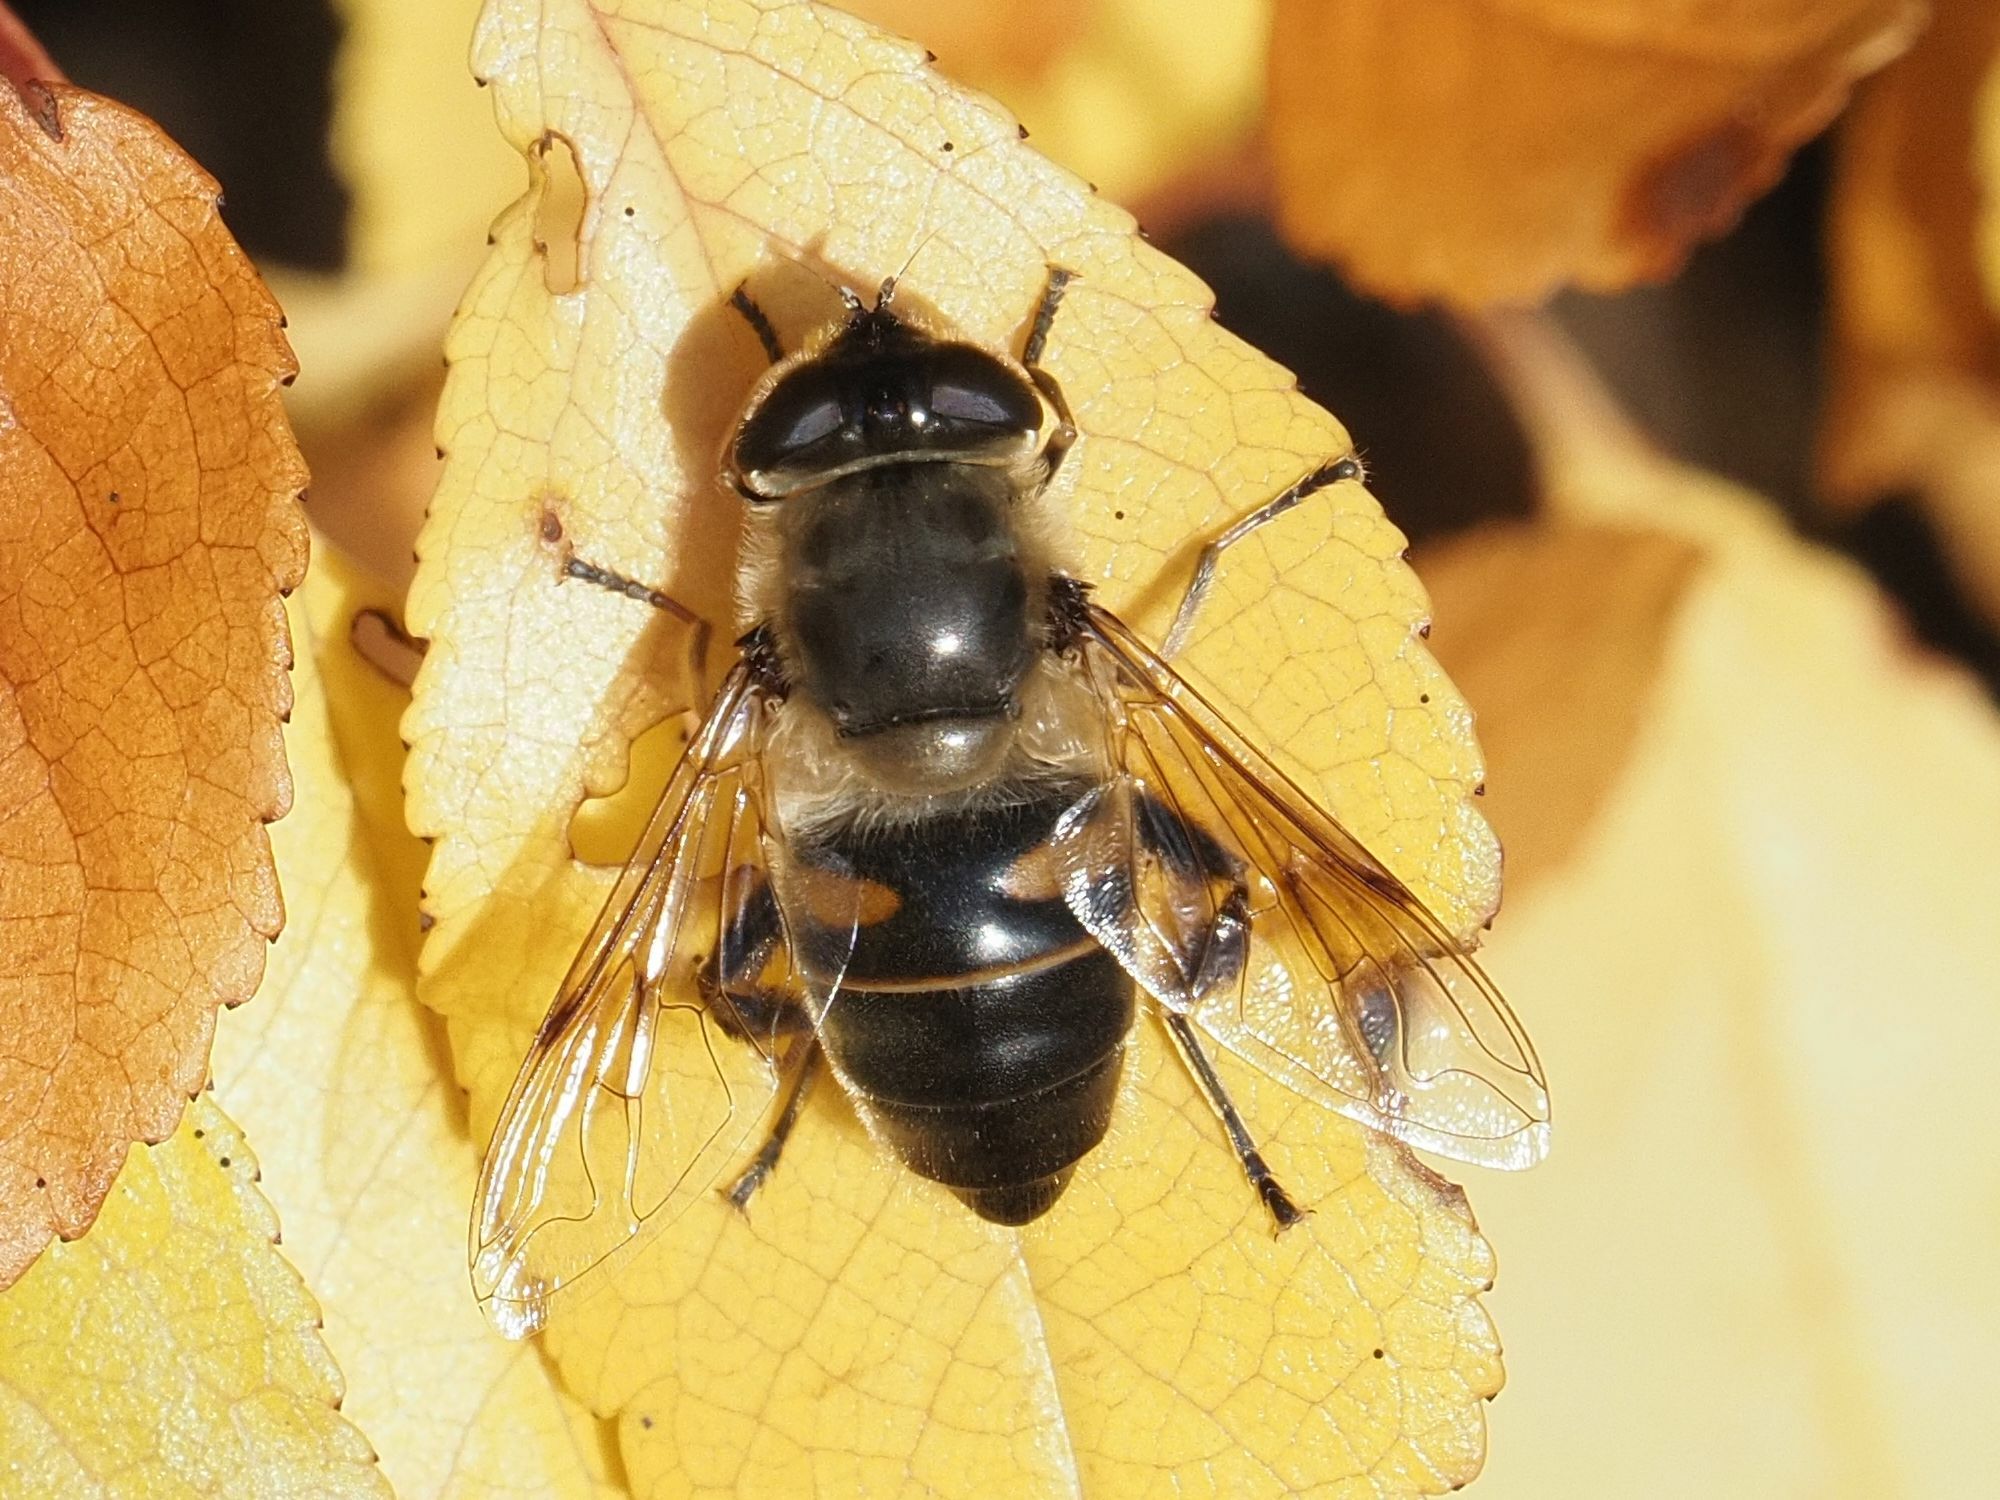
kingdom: Animalia
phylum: Arthropoda
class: Insecta
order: Diptera
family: Syrphidae
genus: Eristalis
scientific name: Eristalis tenax
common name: Drone fly
